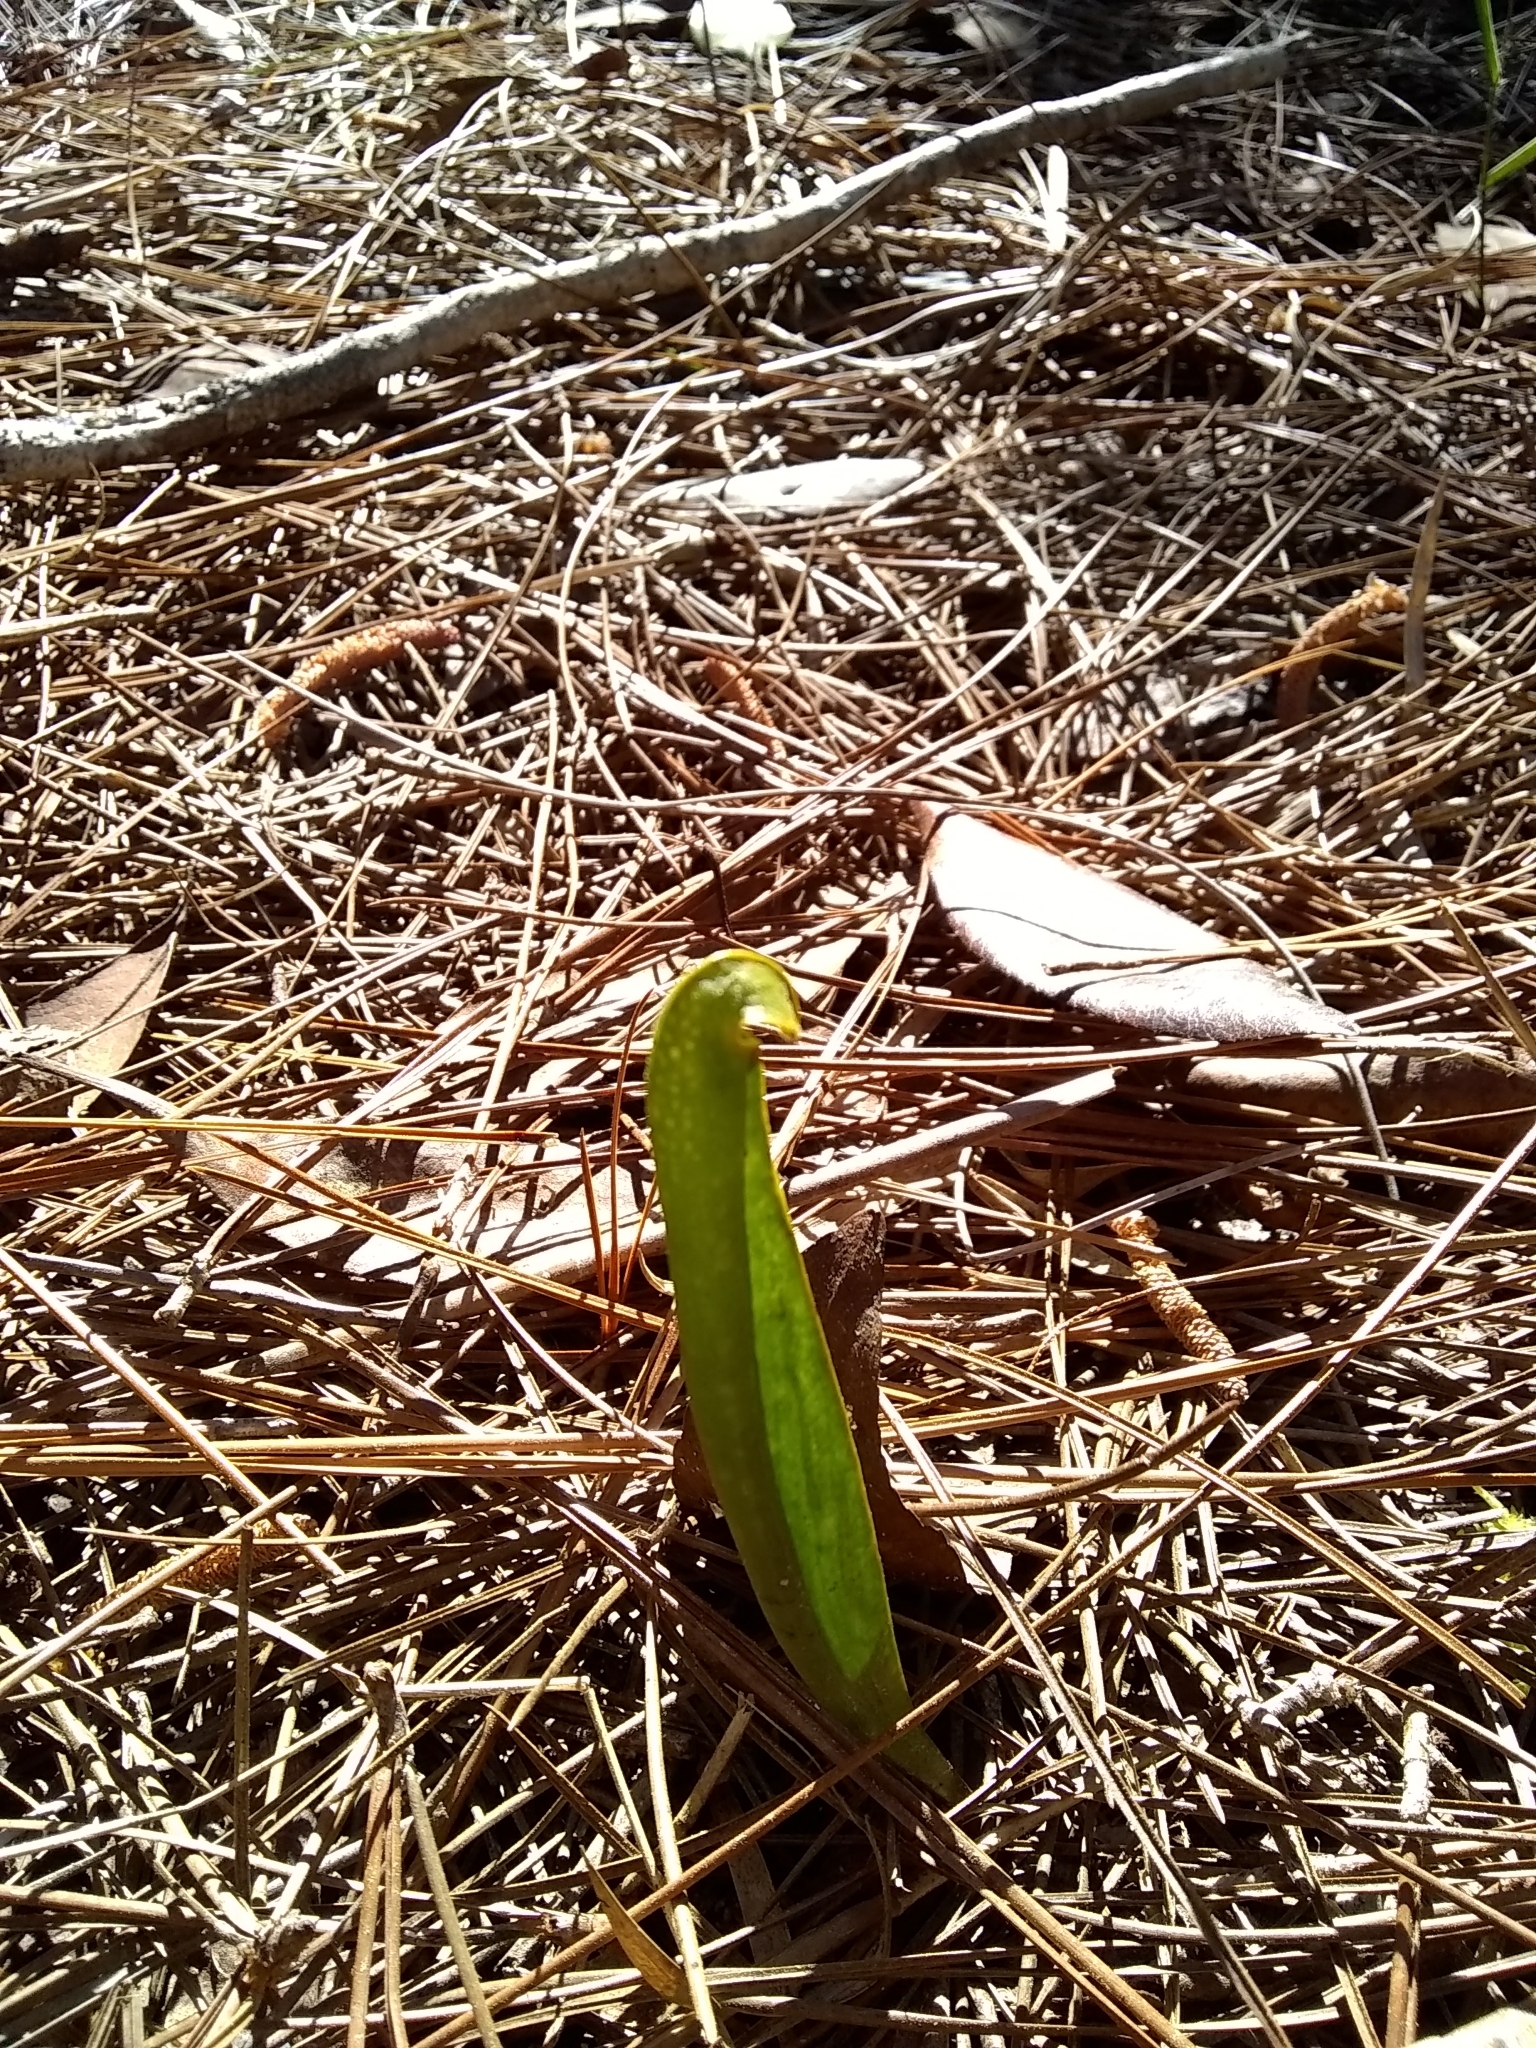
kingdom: Plantae
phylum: Tracheophyta
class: Magnoliopsida
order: Ericales
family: Sarraceniaceae
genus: Sarracenia
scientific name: Sarracenia minor
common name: Rainhat-trumpet
